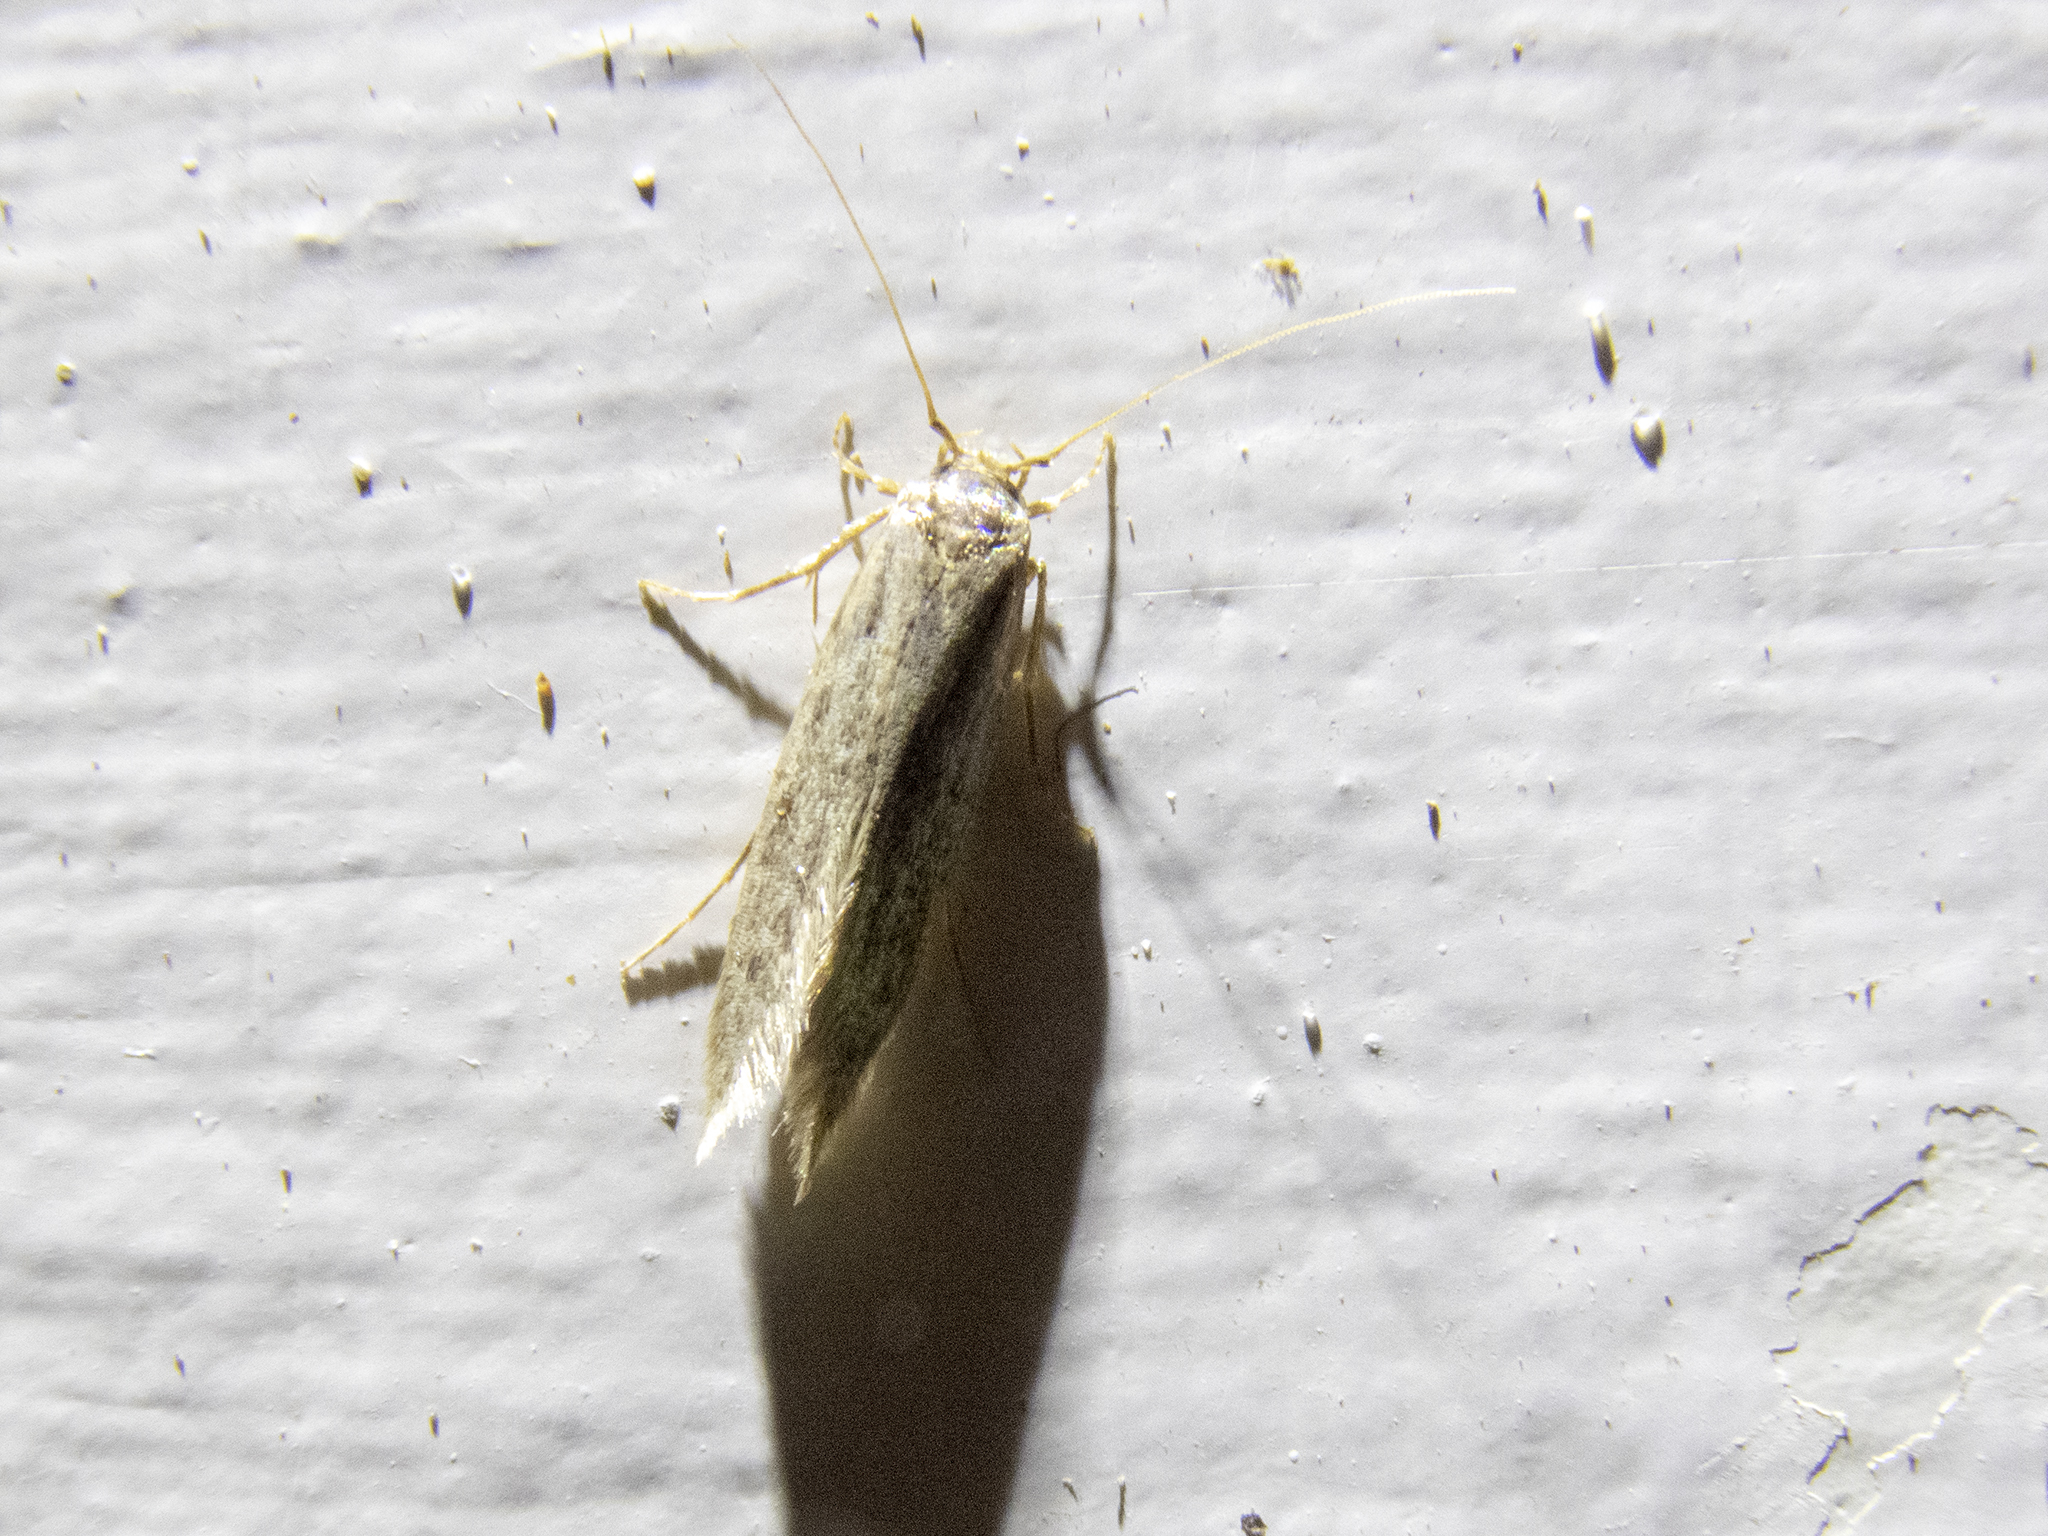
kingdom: Animalia
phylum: Arthropoda
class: Insecta
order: Lepidoptera
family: Tineidae
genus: Opogona
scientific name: Opogona omoscopa
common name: Moth
